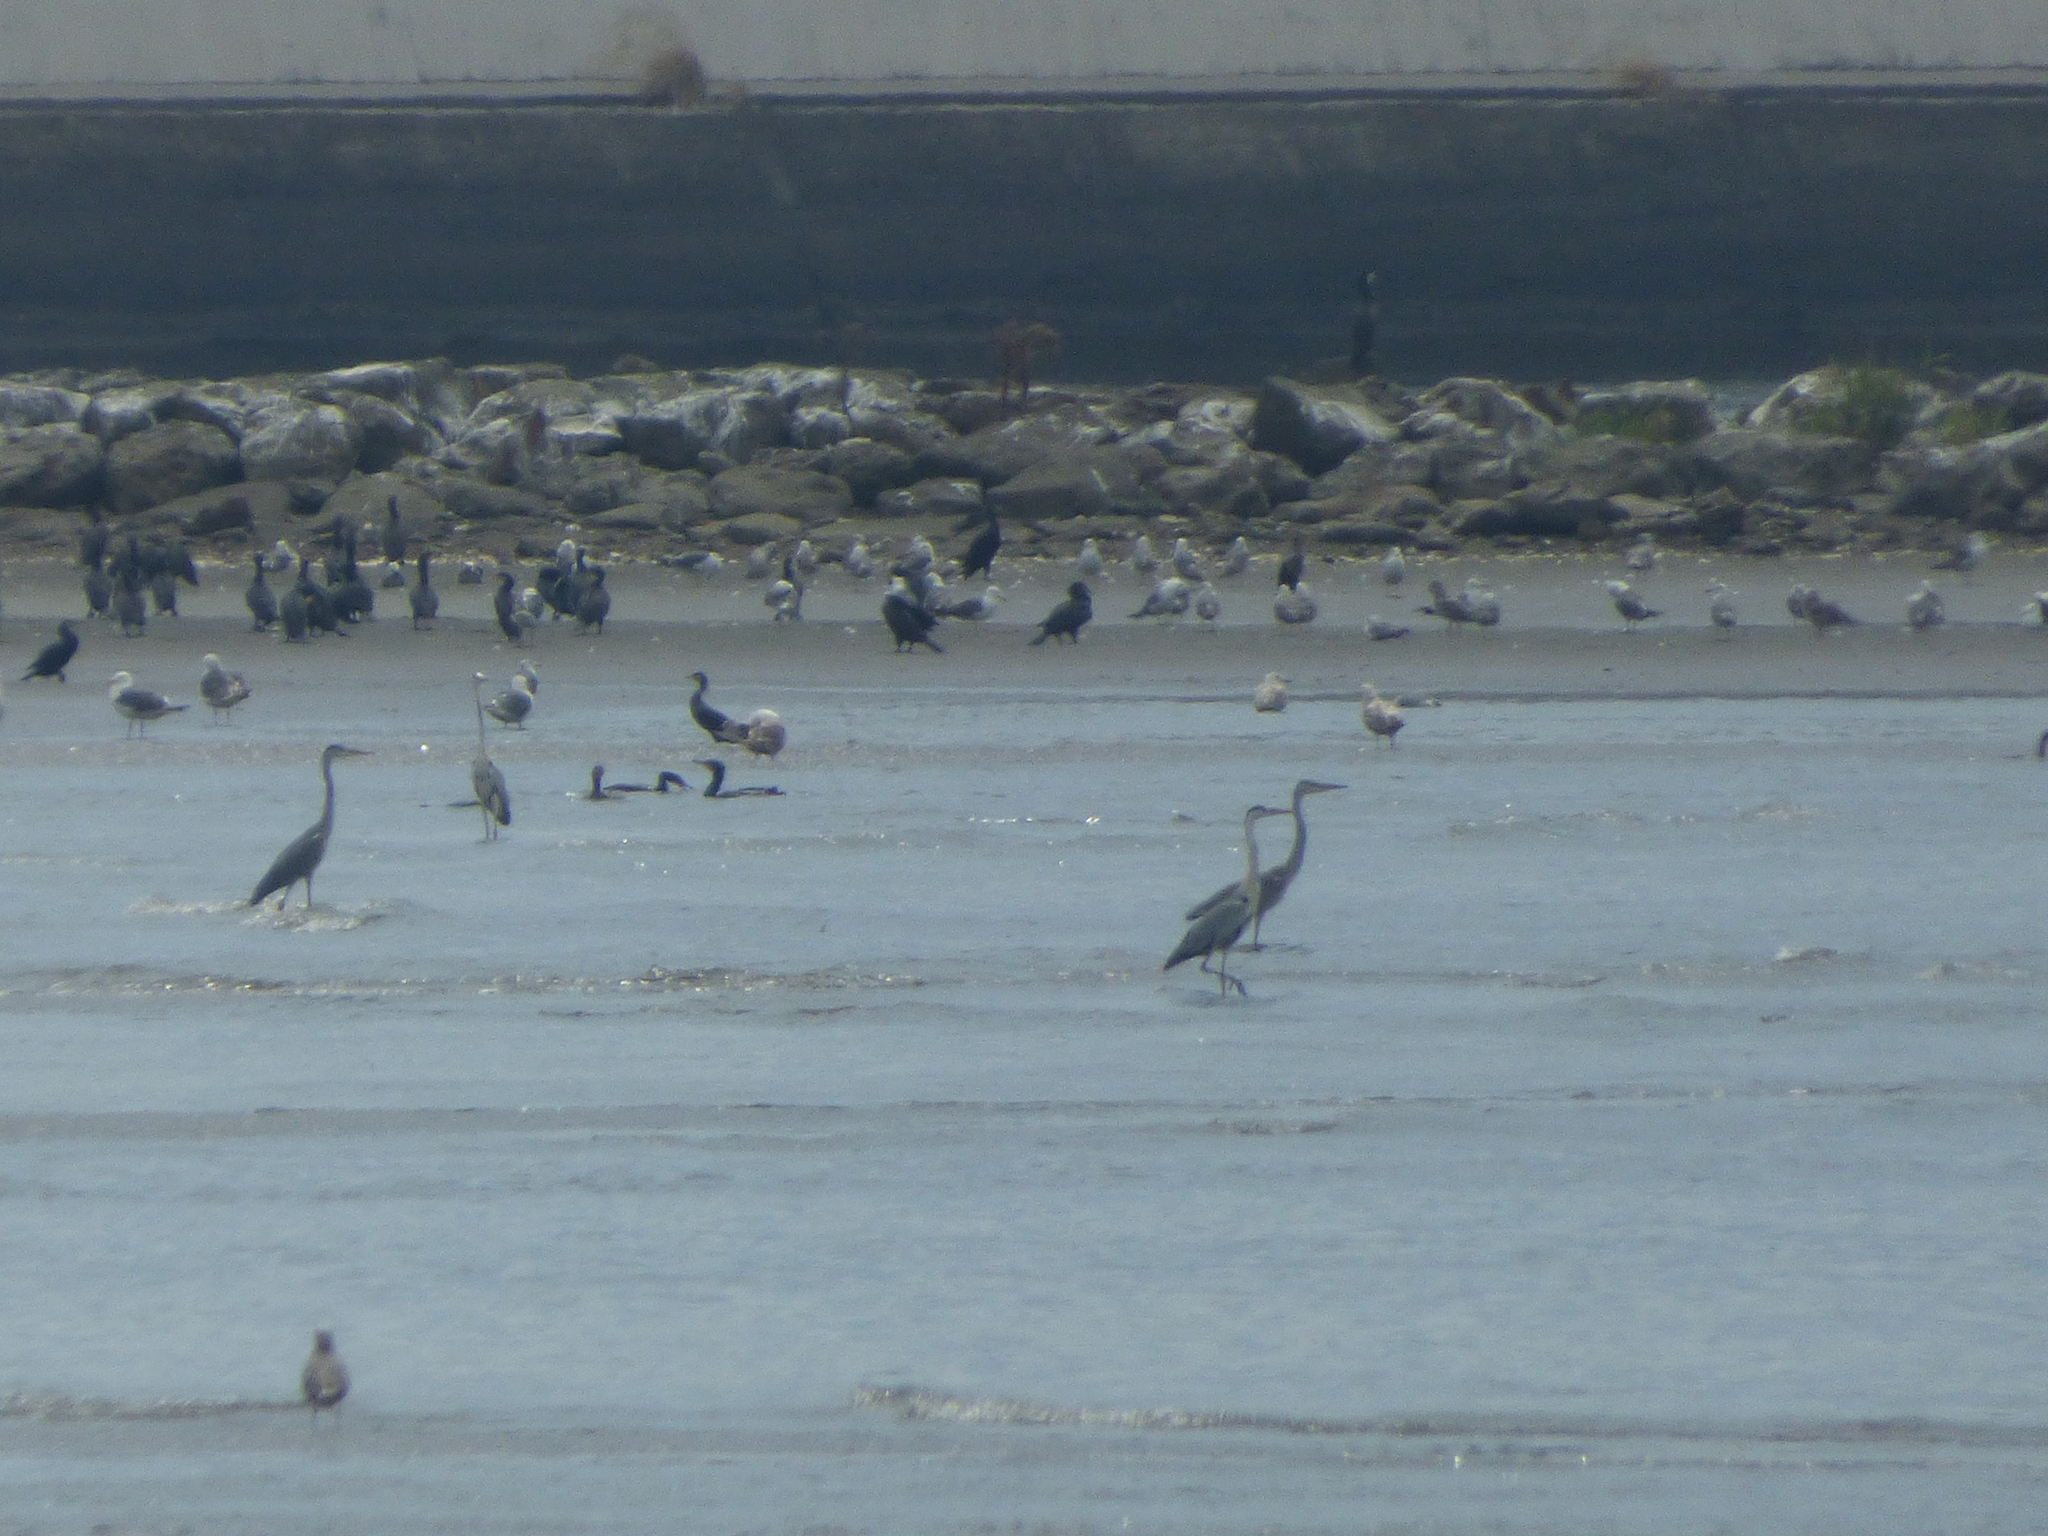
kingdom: Animalia
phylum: Chordata
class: Aves
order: Pelecaniformes
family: Ardeidae
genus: Ardea
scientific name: Ardea cinerea
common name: Grey heron
